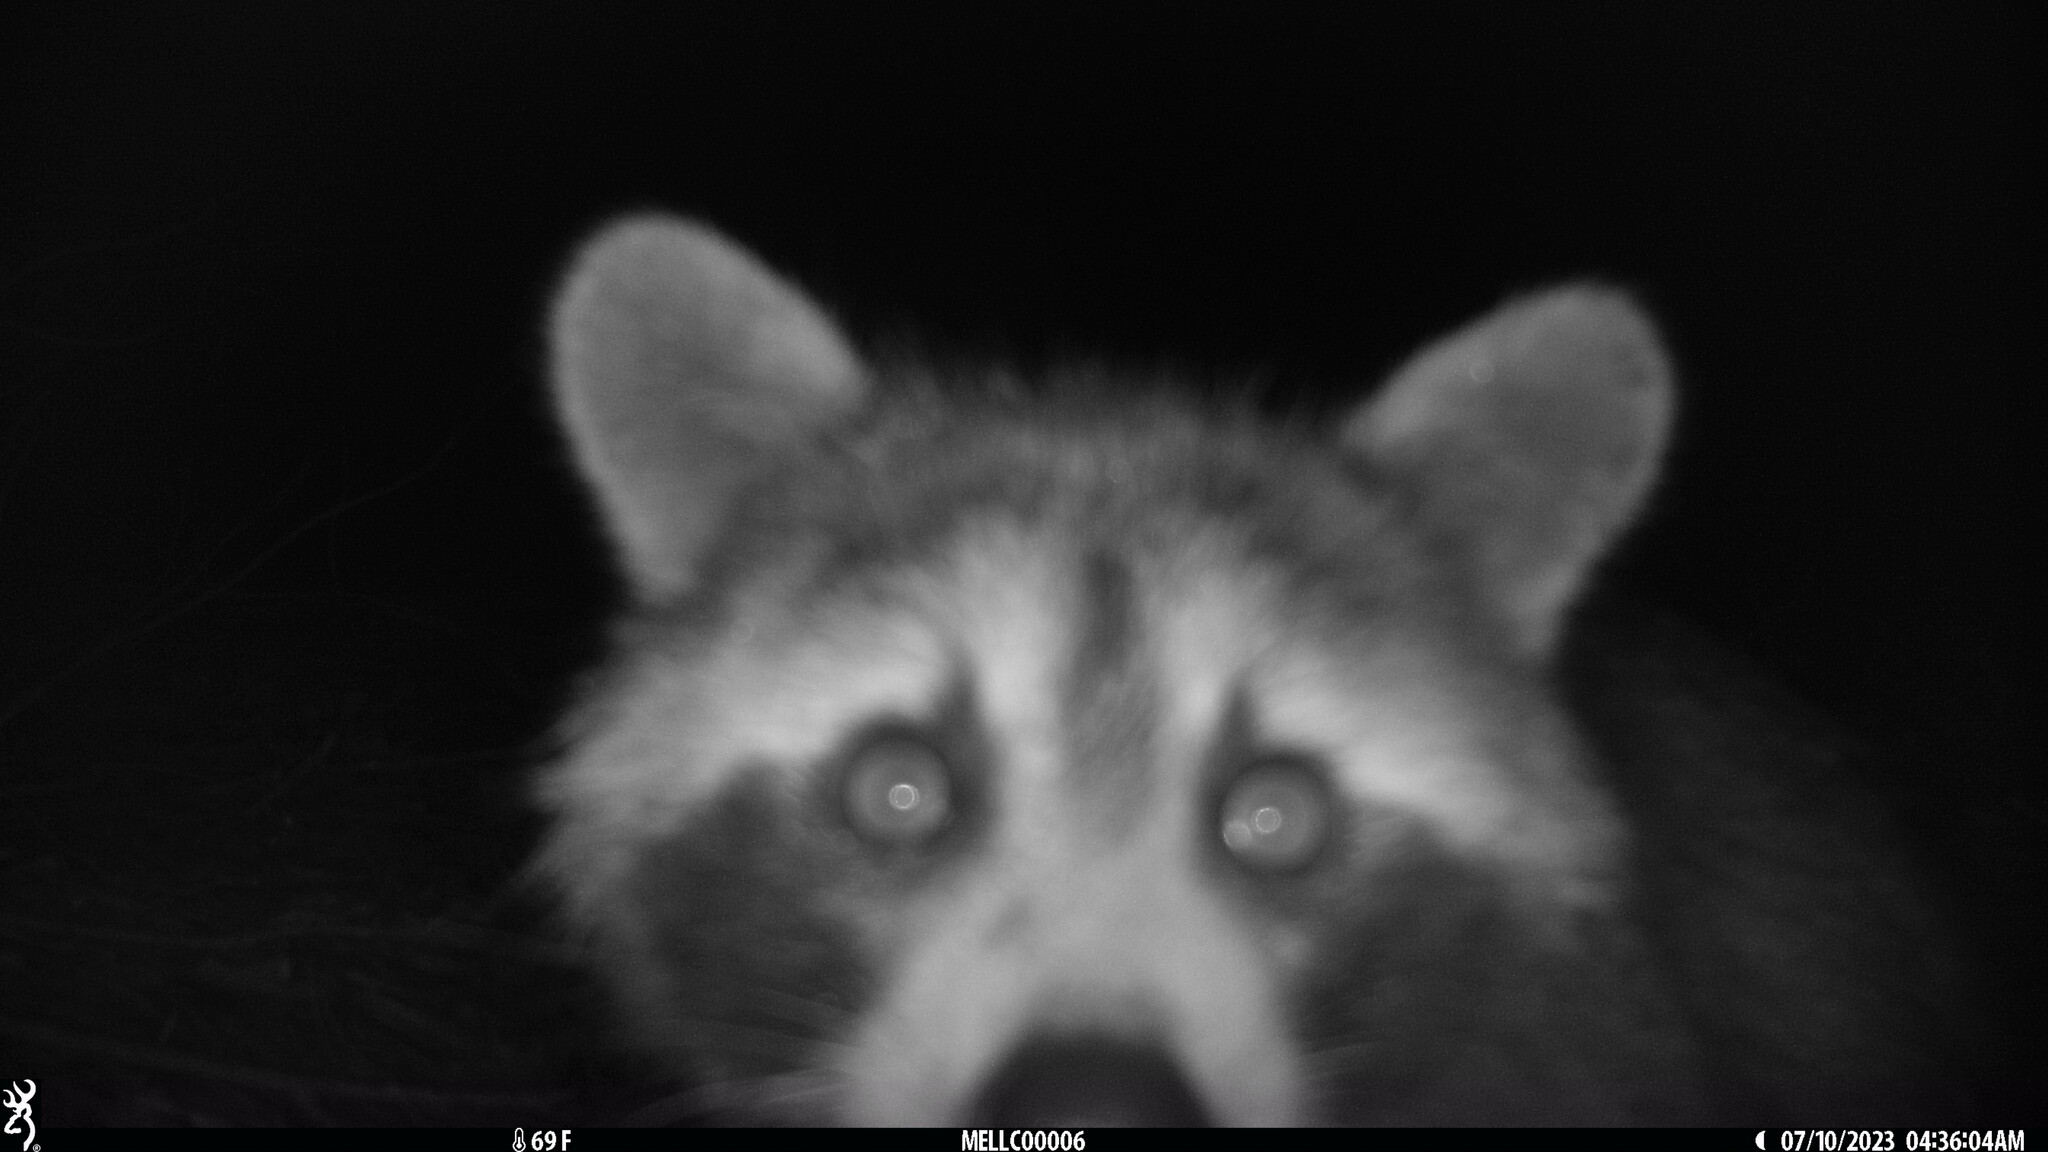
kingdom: Animalia
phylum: Chordata
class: Mammalia
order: Carnivora
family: Procyonidae
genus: Procyon
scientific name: Procyon lotor
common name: Raccoon
